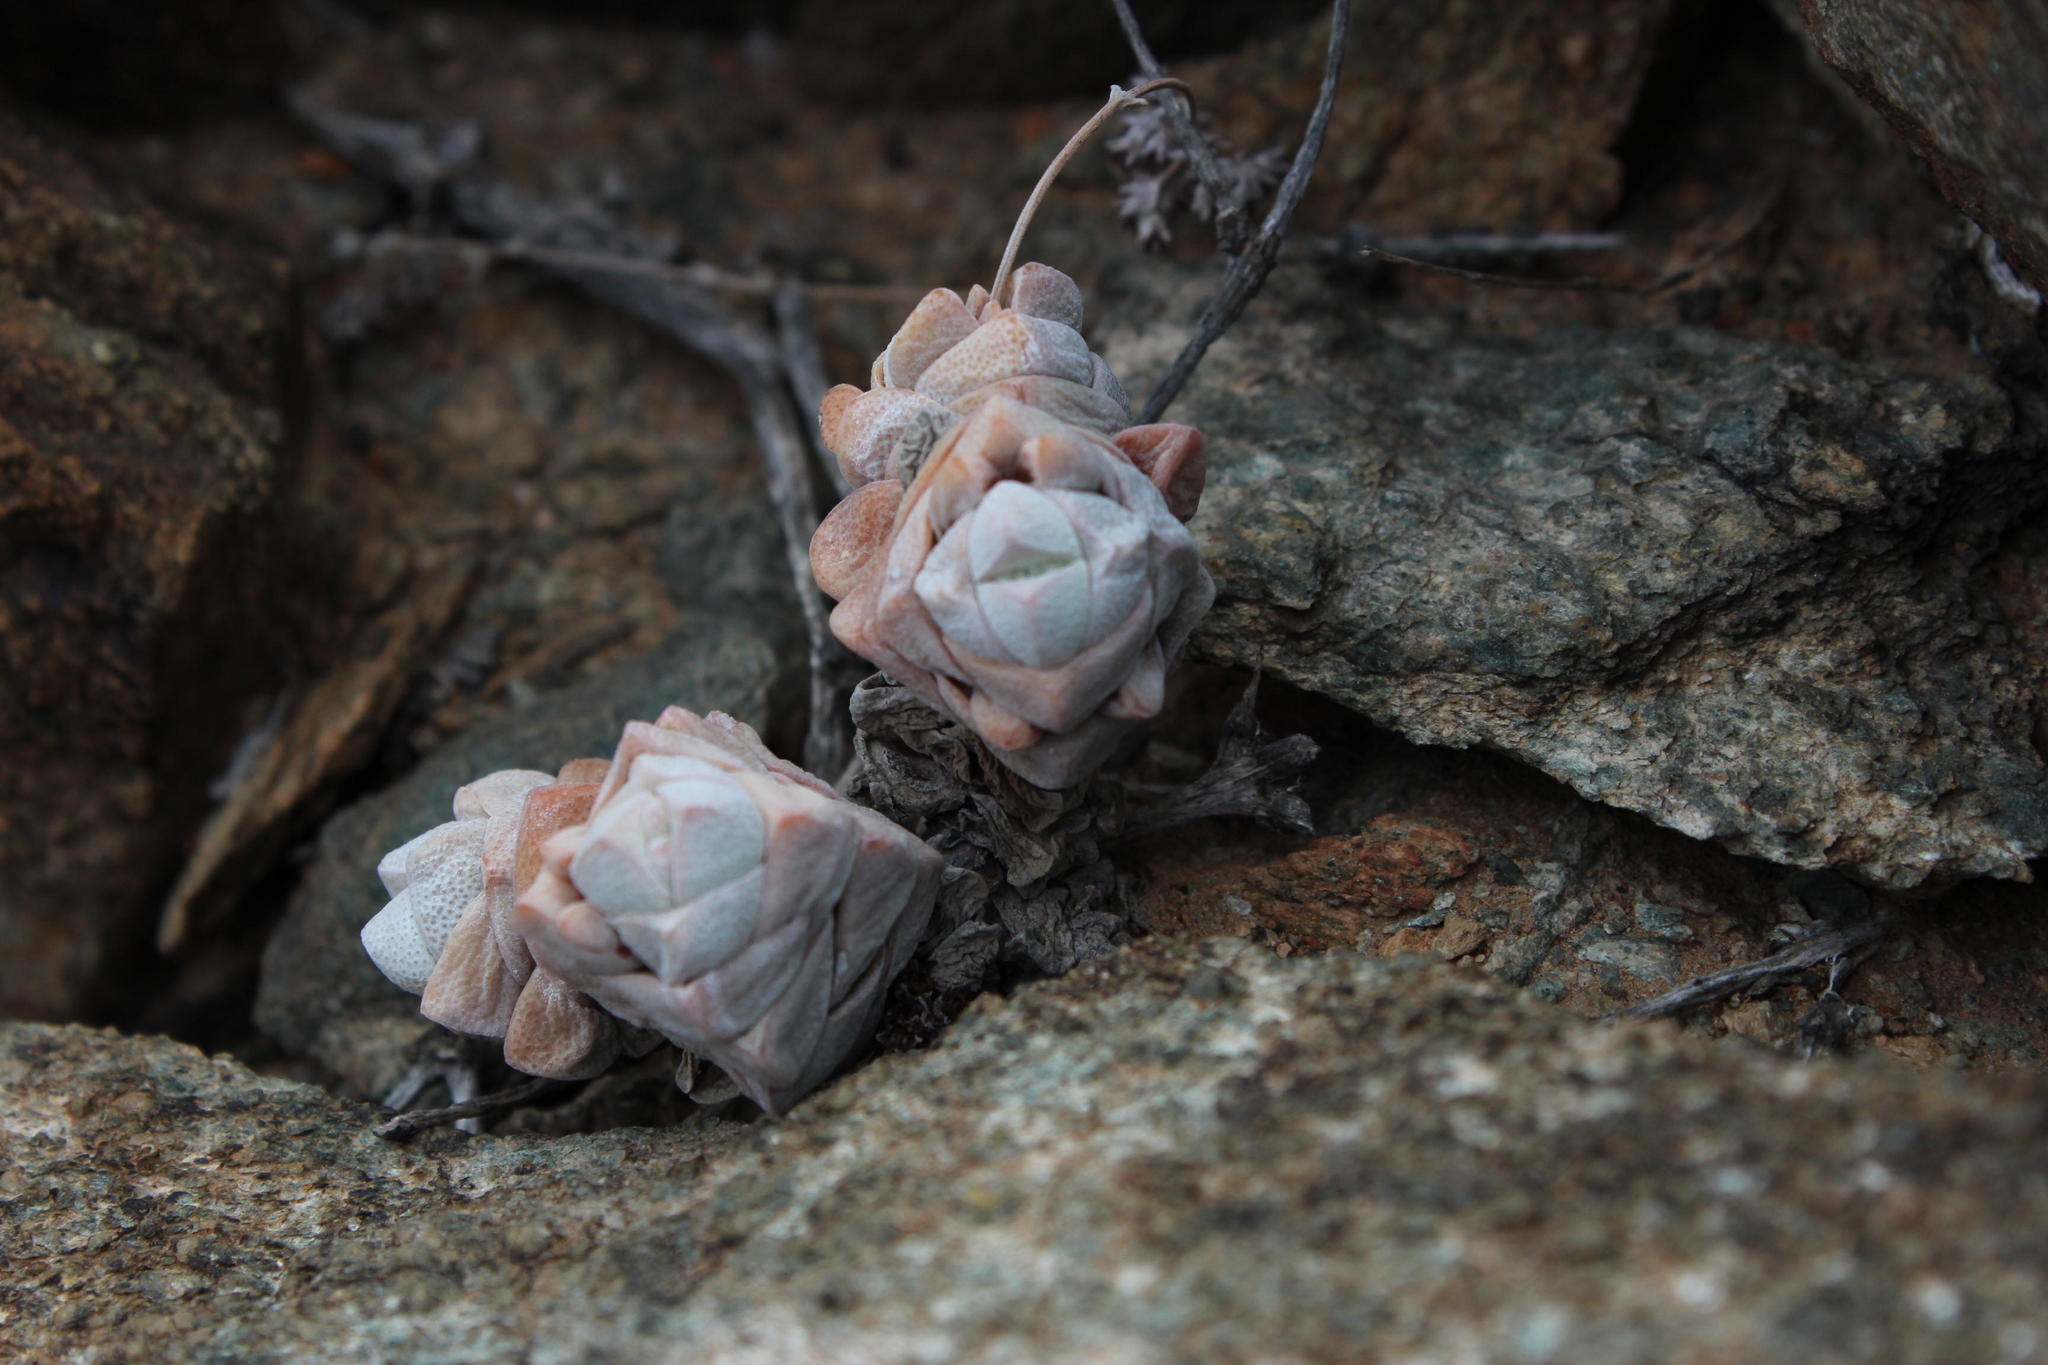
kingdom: Plantae
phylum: Tracheophyta
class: Magnoliopsida
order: Saxifragales
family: Crassulaceae
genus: Crassula
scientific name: Crassula deceptor
